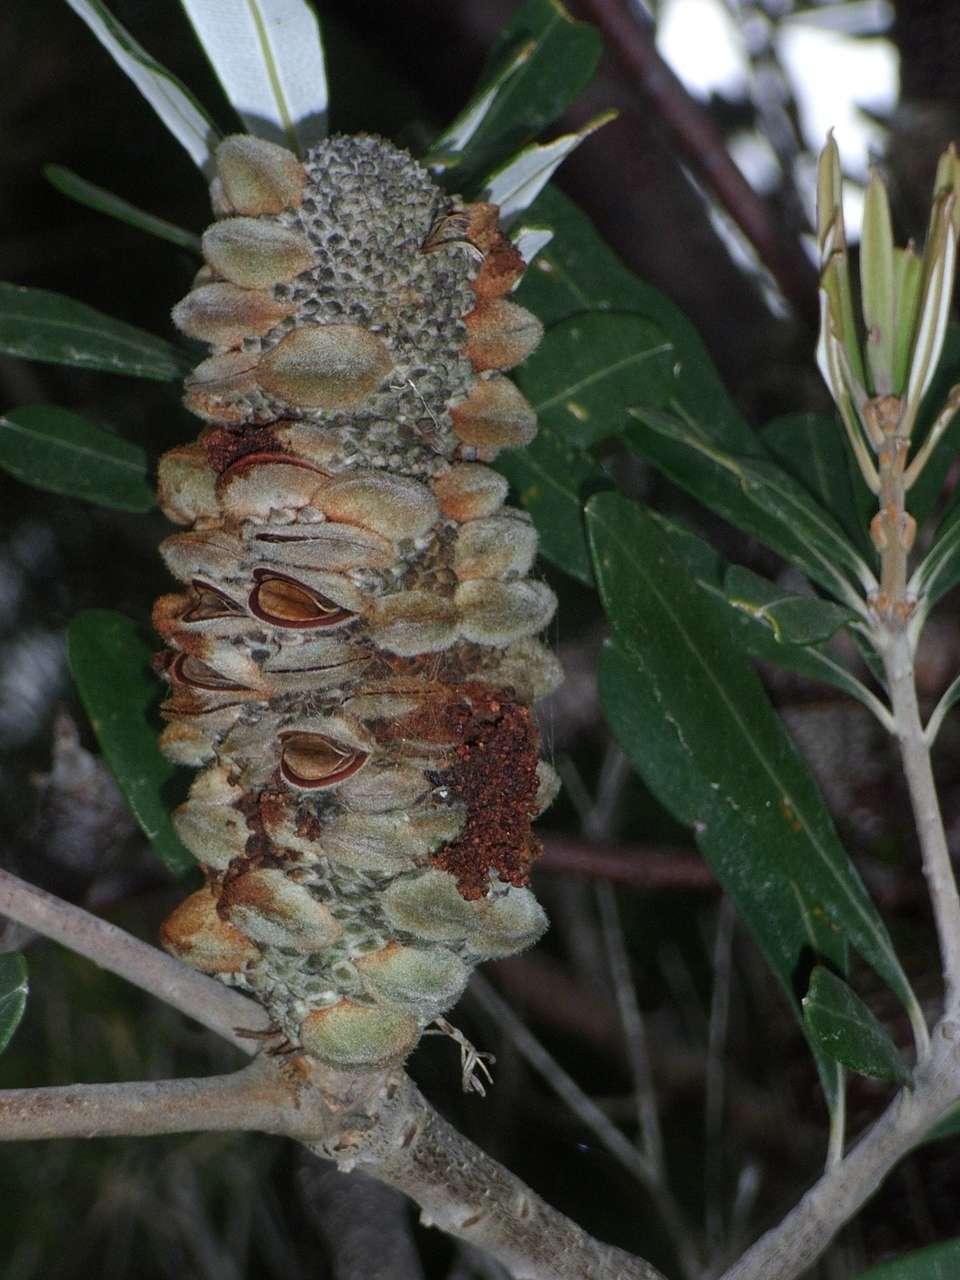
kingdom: Plantae
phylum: Tracheophyta
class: Magnoliopsida
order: Proteales
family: Proteaceae
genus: Banksia
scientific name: Banksia integrifolia
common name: White-honeysuckle
